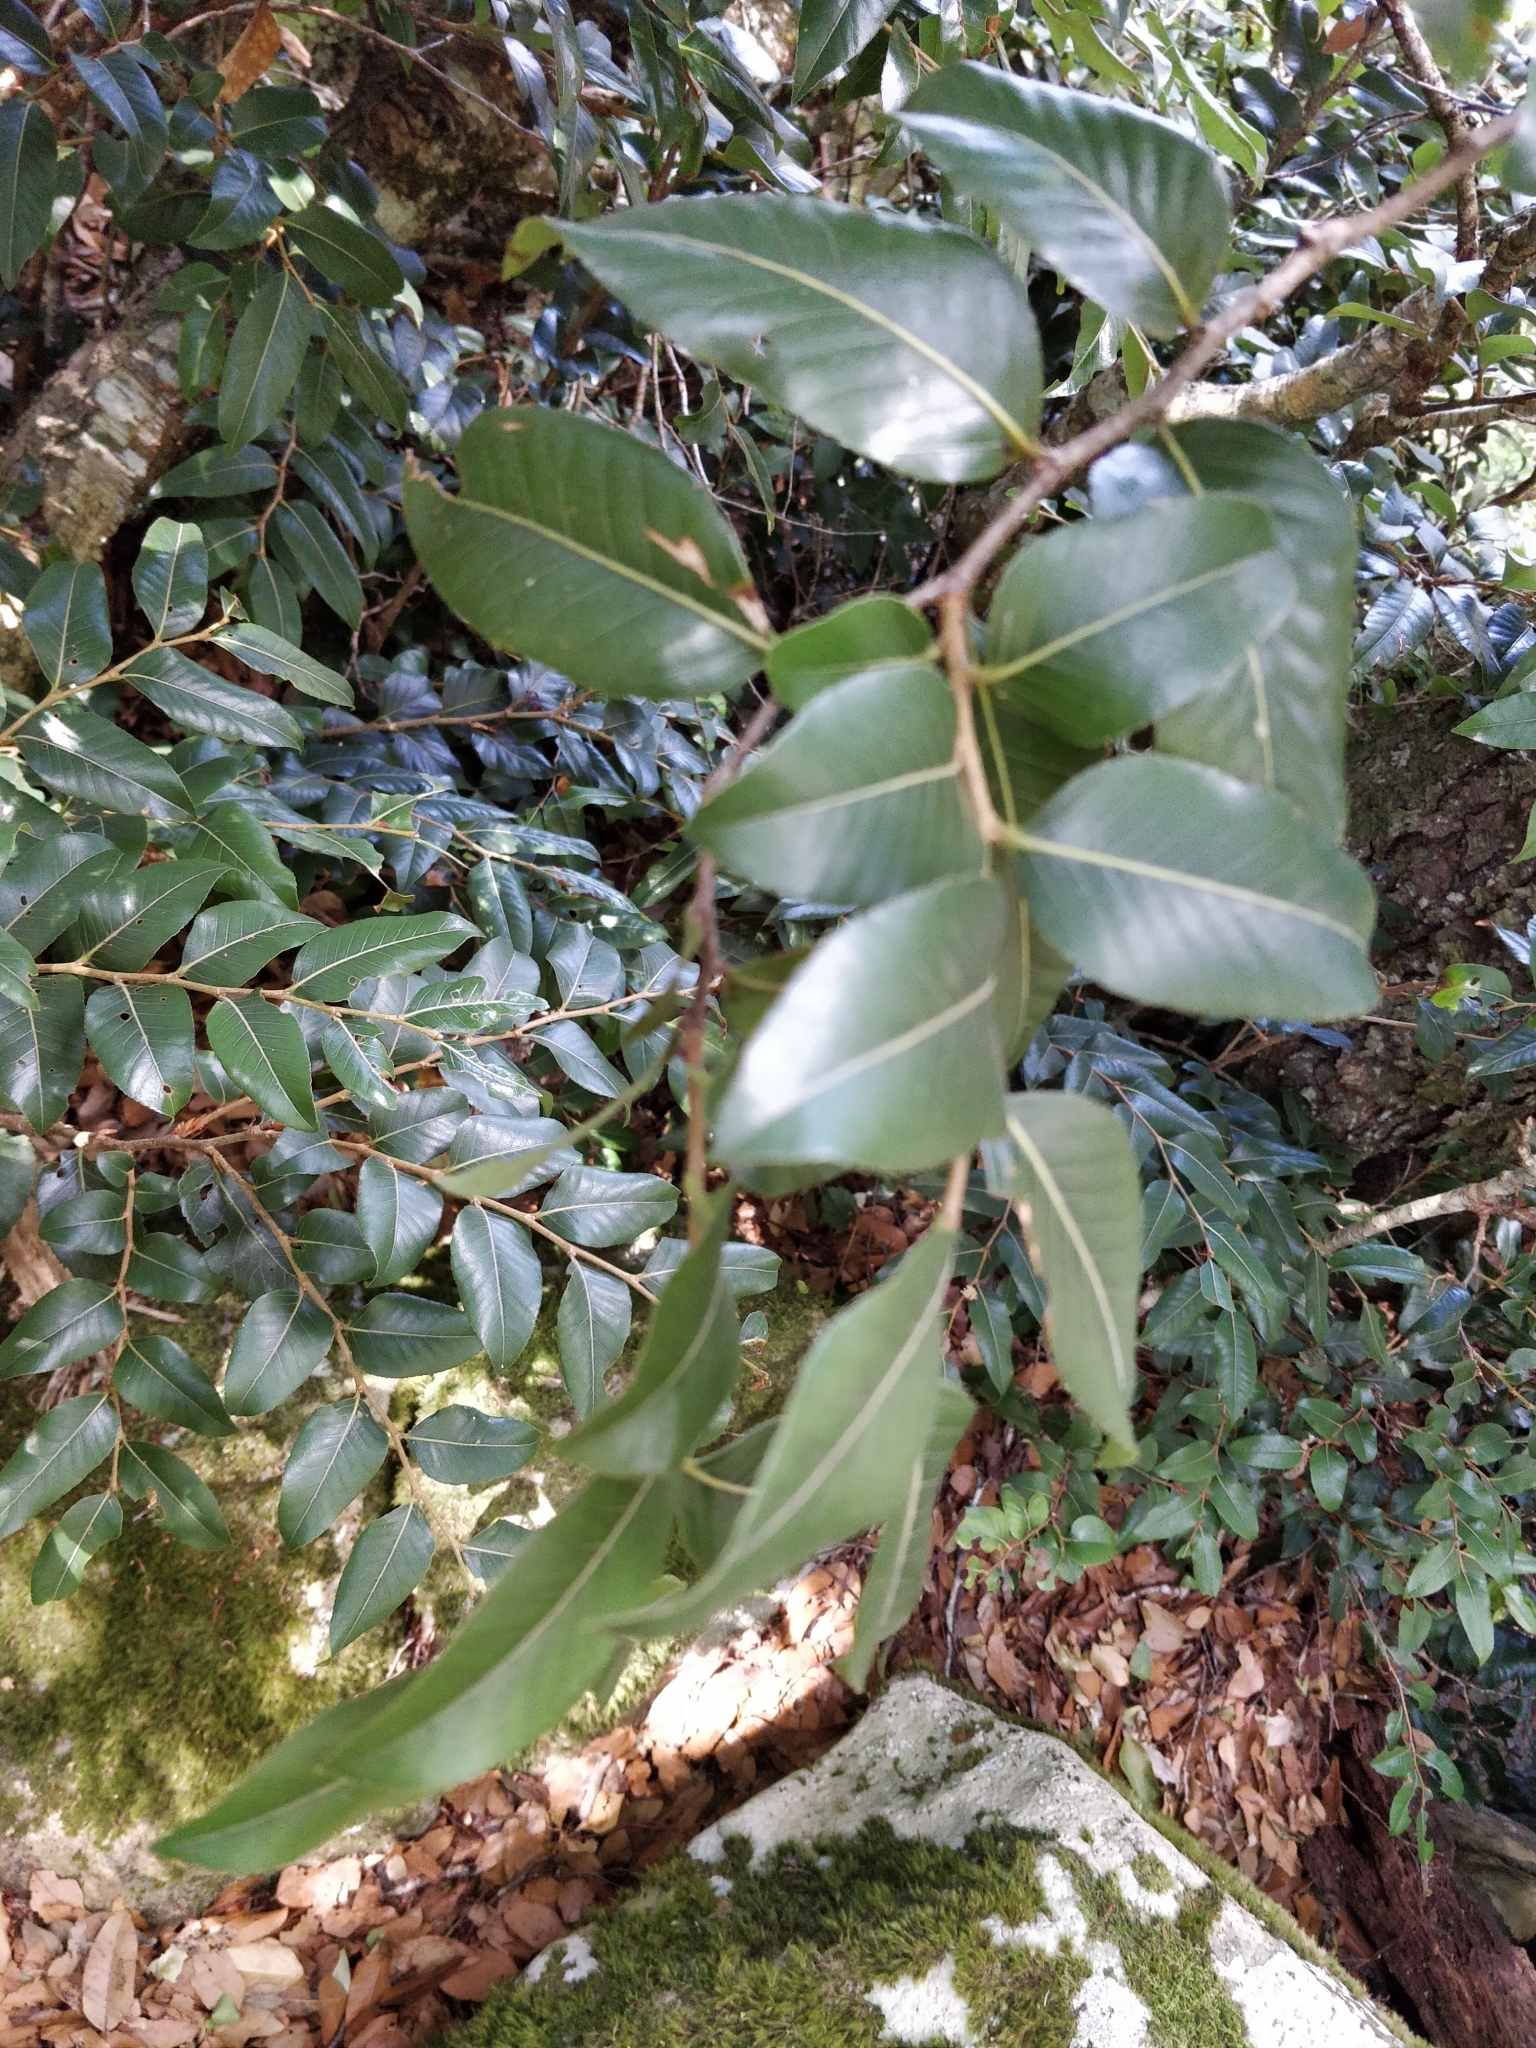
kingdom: Plantae
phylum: Tracheophyta
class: Magnoliopsida
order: Fagales
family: Nothofagaceae
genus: Nothofagus
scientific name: Nothofagus moorei
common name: Antarctic beech
